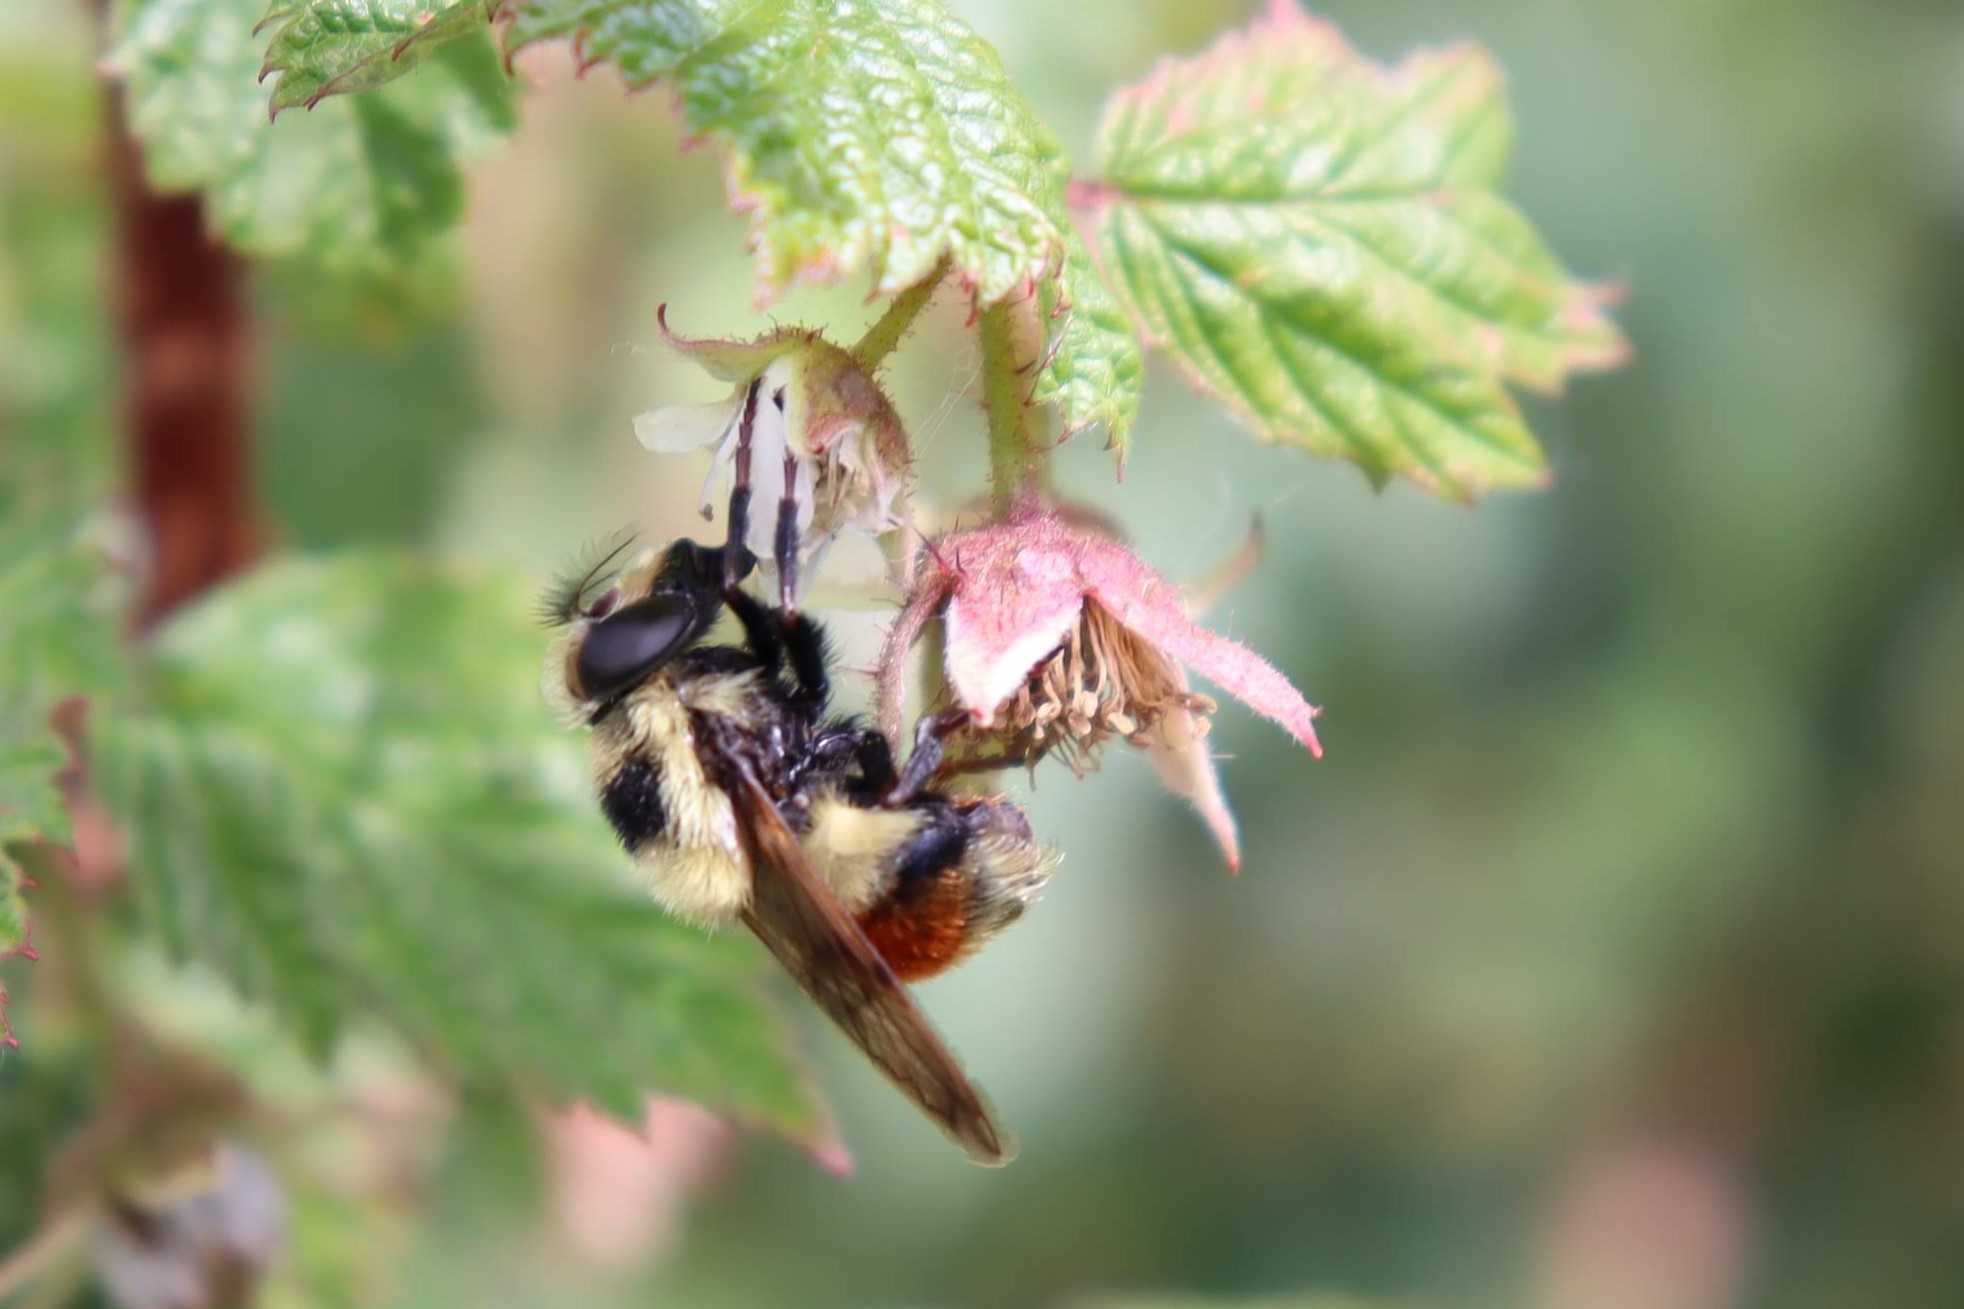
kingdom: Animalia
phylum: Arthropoda
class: Insecta
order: Diptera
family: Syrphidae
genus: Volucella
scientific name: Volucella facialis
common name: Yellow-faced swiftwing
